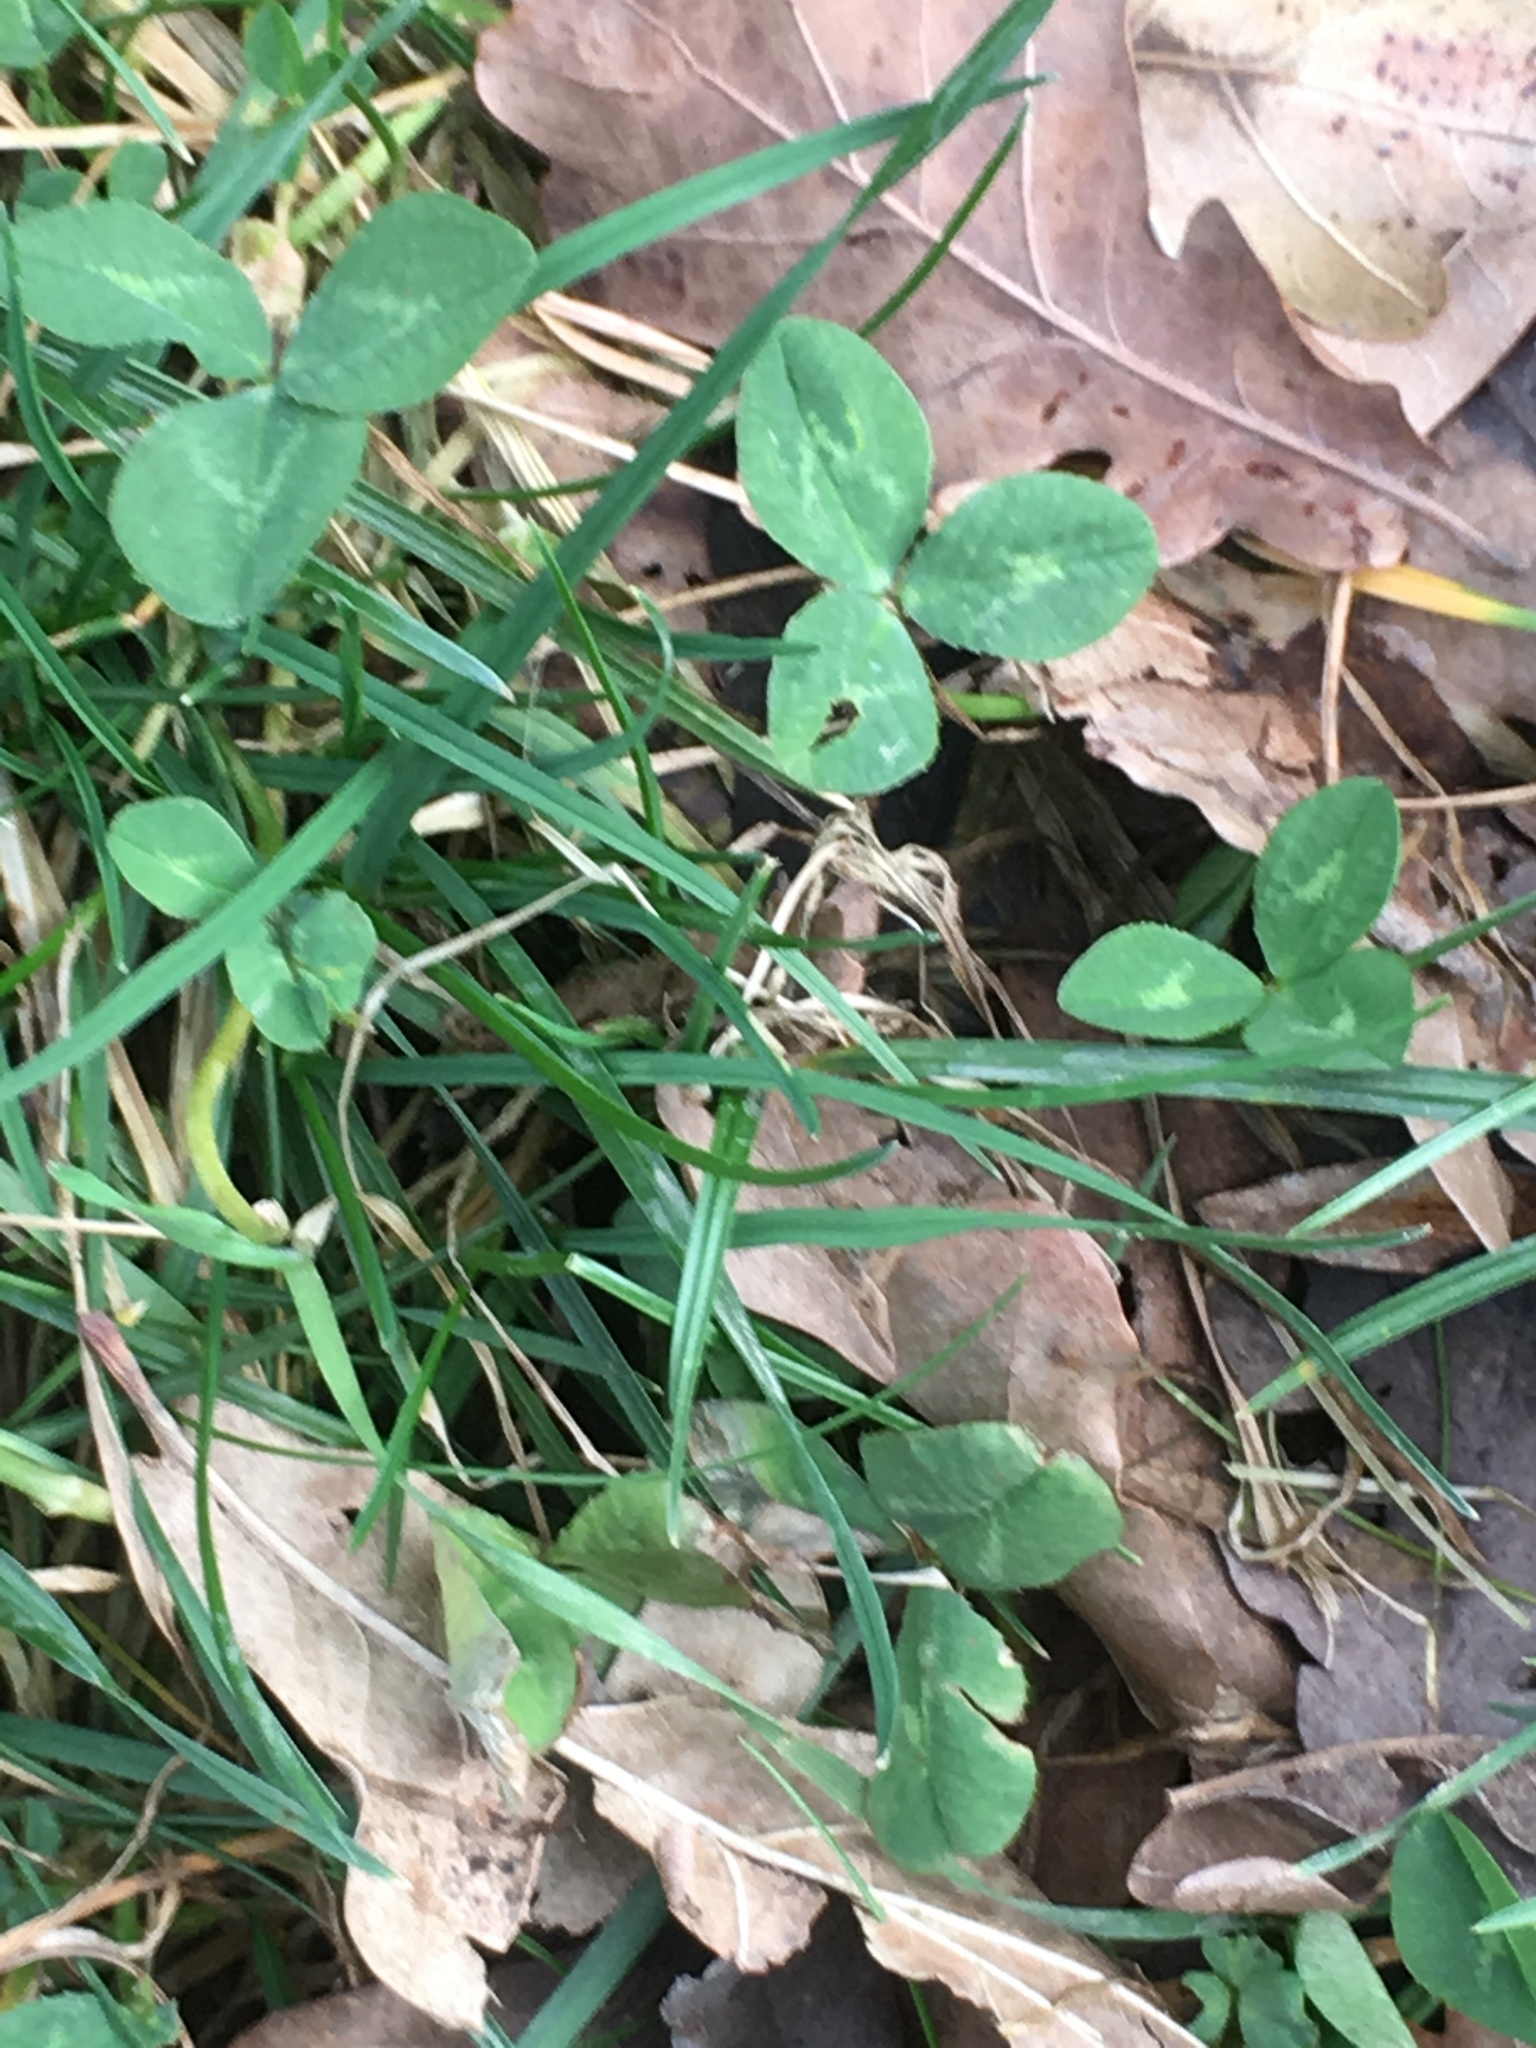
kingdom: Plantae
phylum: Tracheophyta
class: Magnoliopsida
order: Fabales
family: Fabaceae
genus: Trifolium
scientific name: Trifolium repens
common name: White clover
